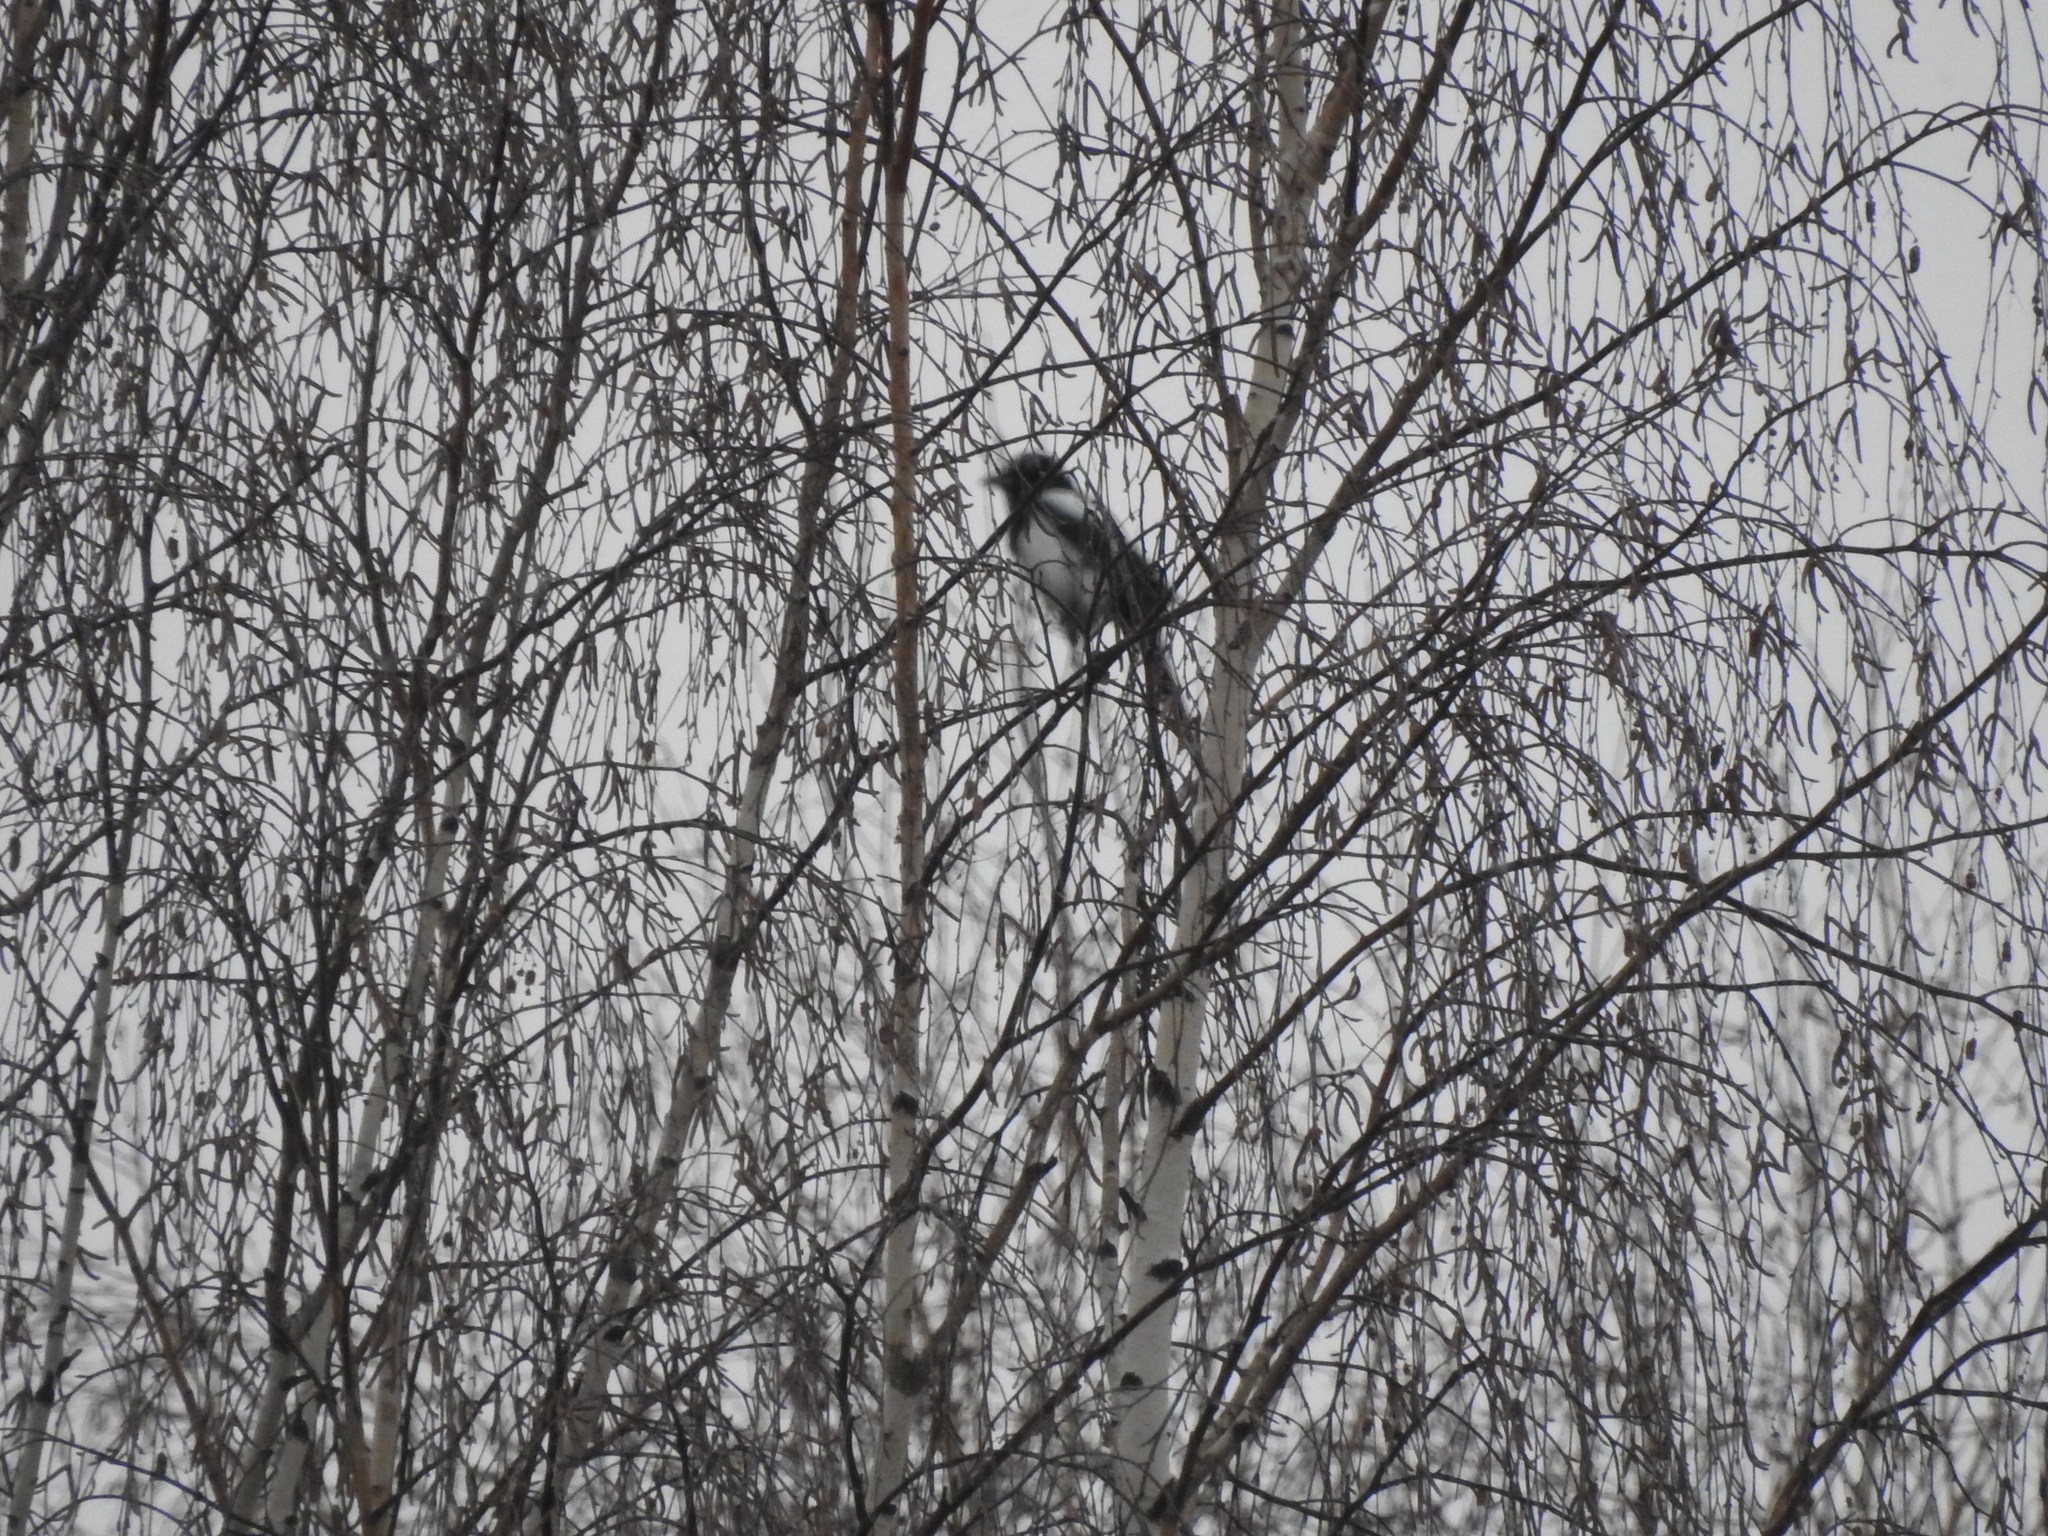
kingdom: Animalia
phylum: Chordata
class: Aves
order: Passeriformes
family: Corvidae
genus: Pica
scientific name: Pica pica
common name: Eurasian magpie
